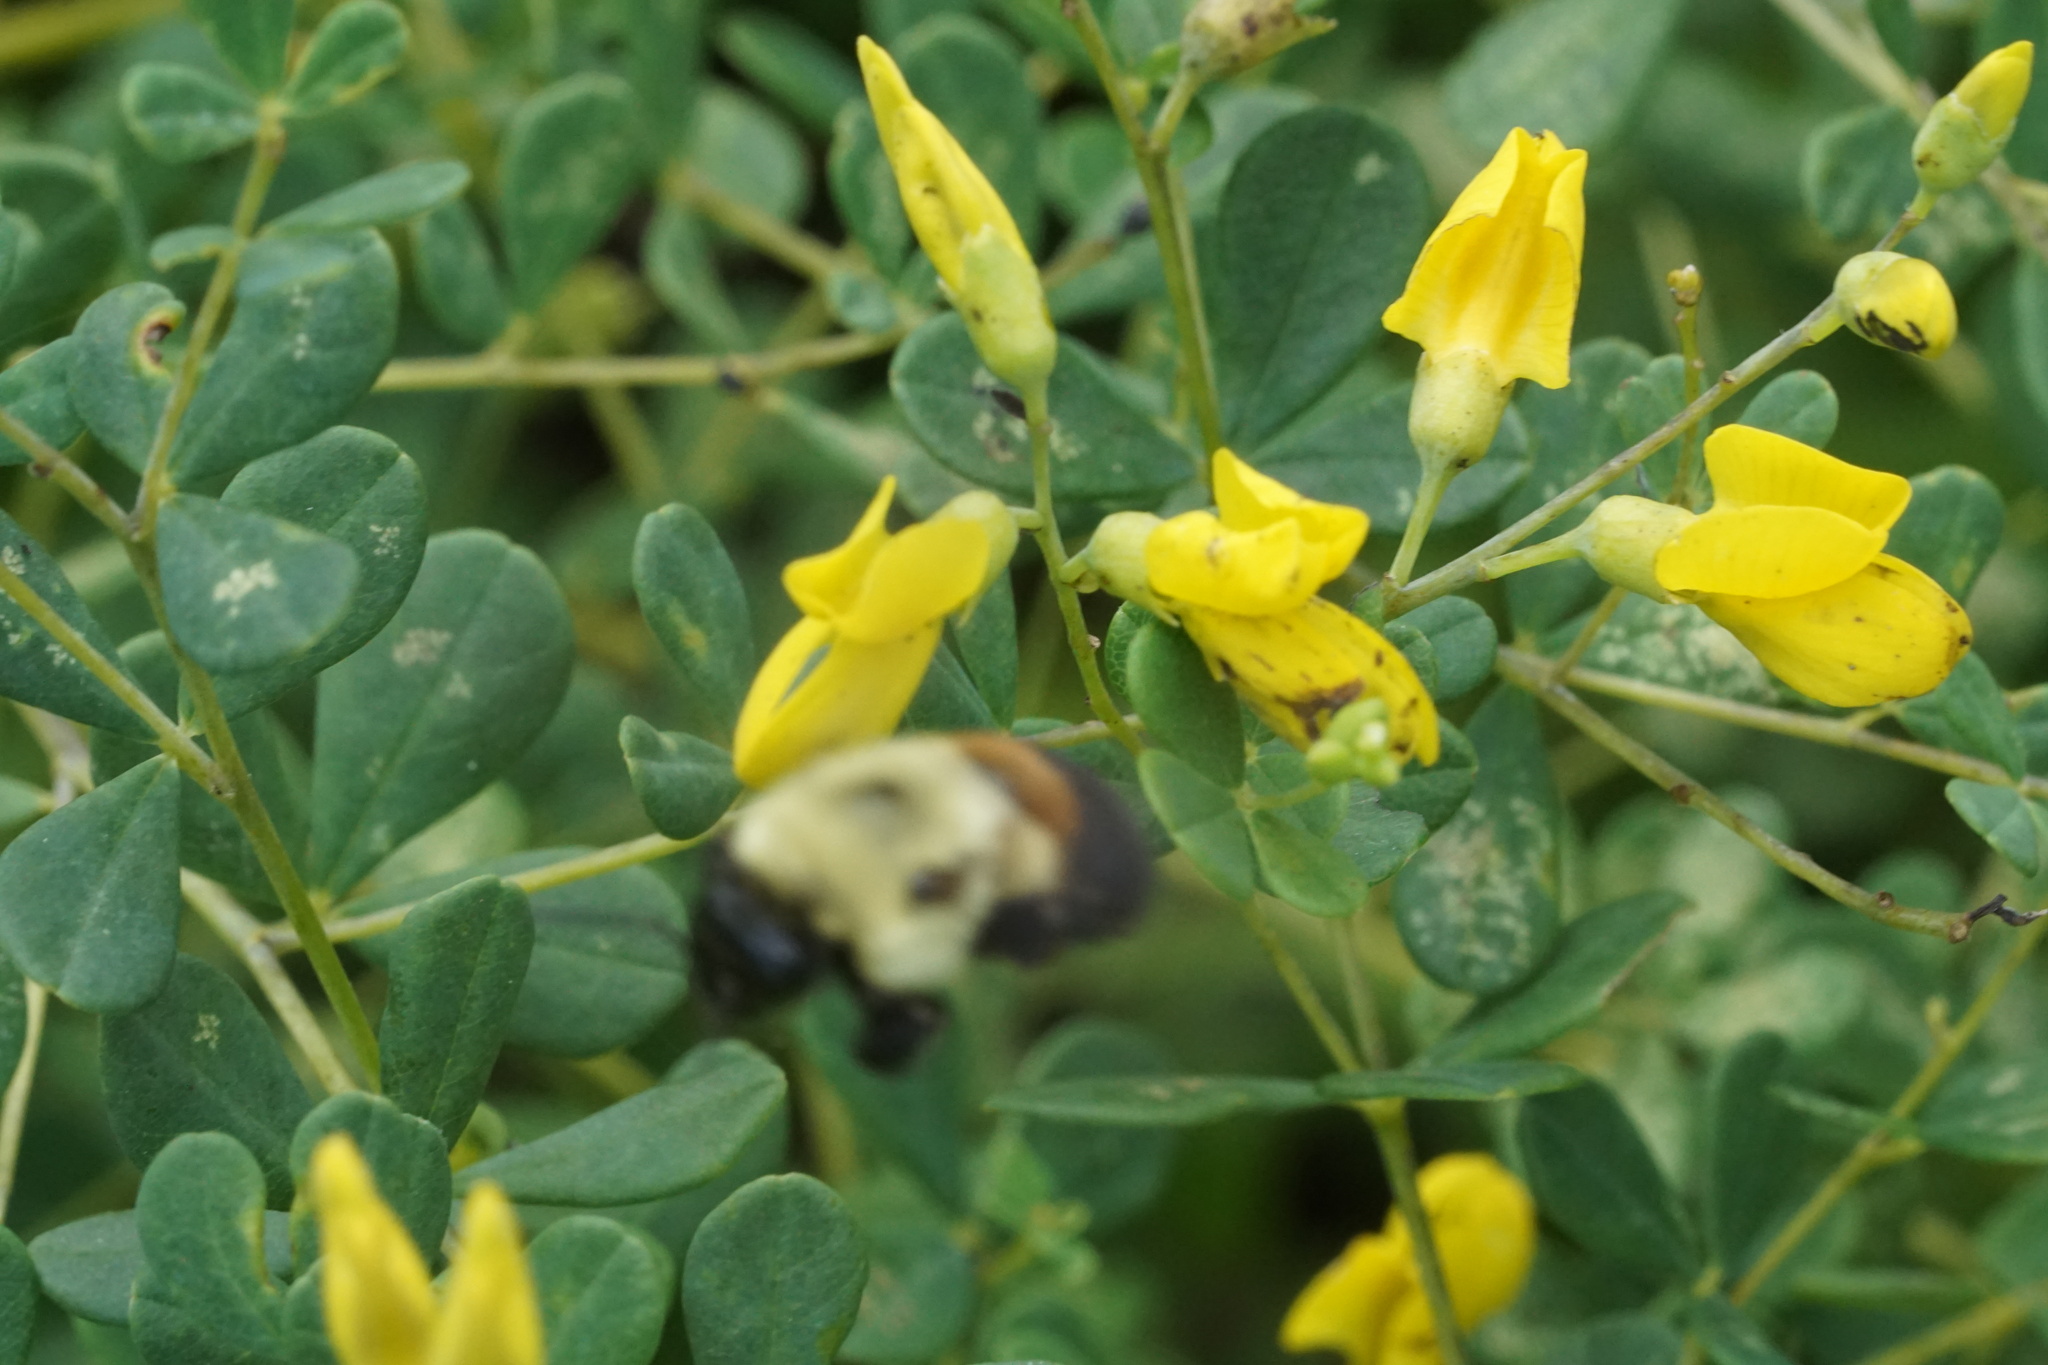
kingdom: Animalia
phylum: Arthropoda
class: Insecta
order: Hymenoptera
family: Apidae
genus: Bombus
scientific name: Bombus griseocollis
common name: Brown-belted bumble bee
